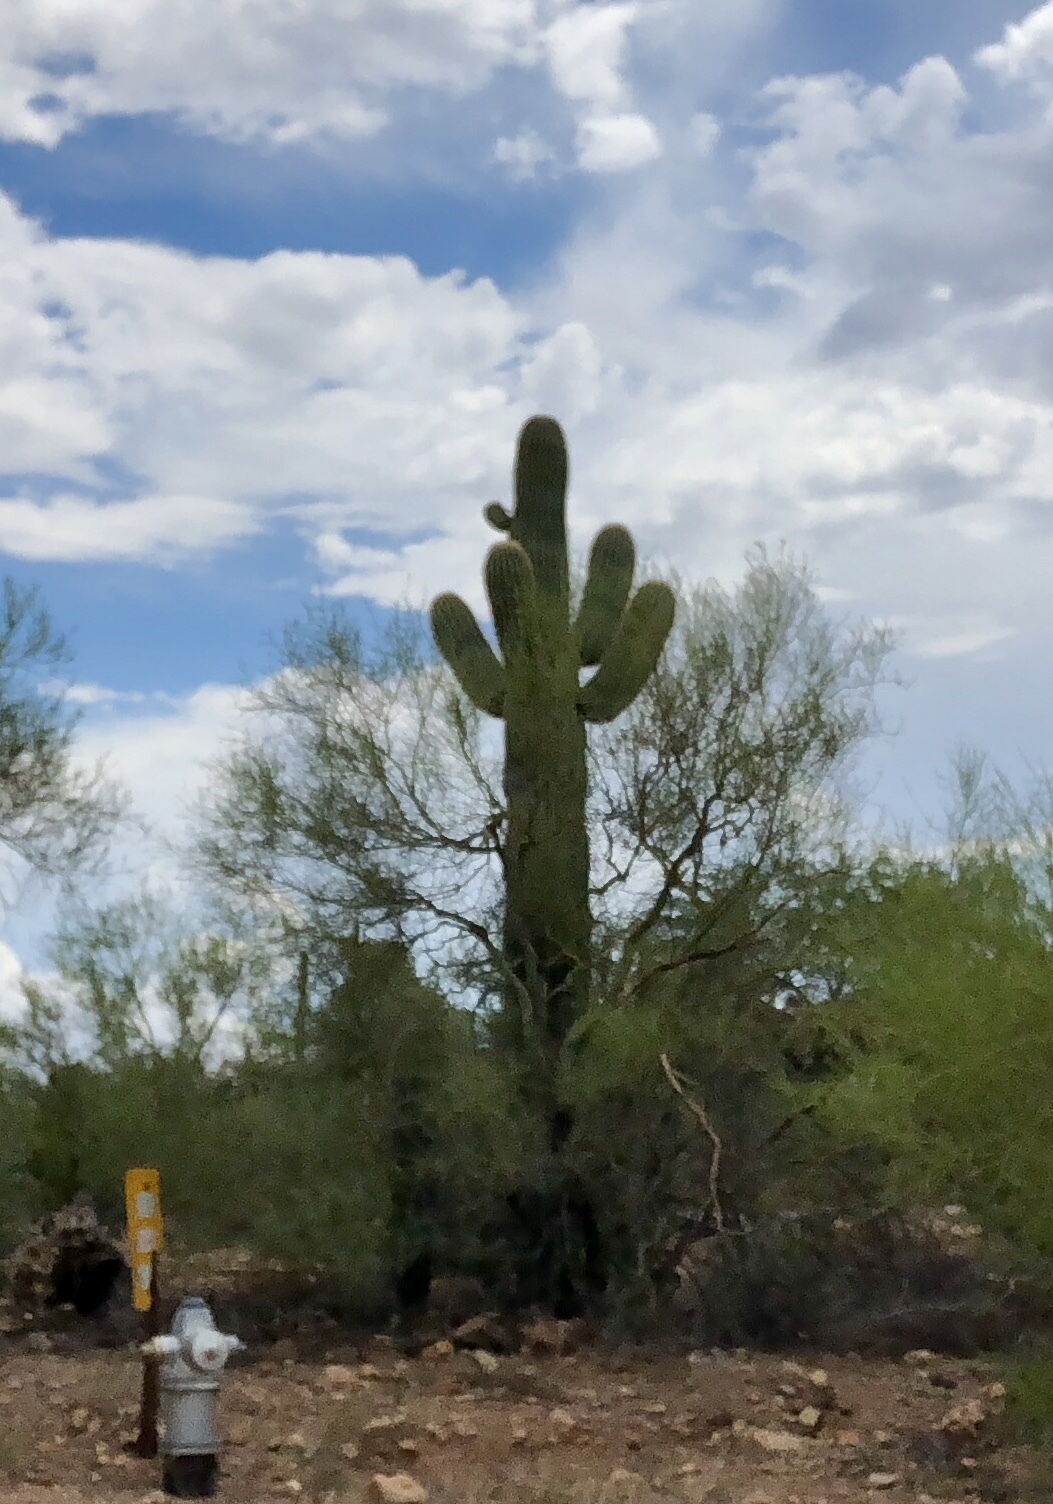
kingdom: Plantae
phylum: Tracheophyta
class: Magnoliopsida
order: Caryophyllales
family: Cactaceae
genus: Carnegiea
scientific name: Carnegiea gigantea
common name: Saguaro
